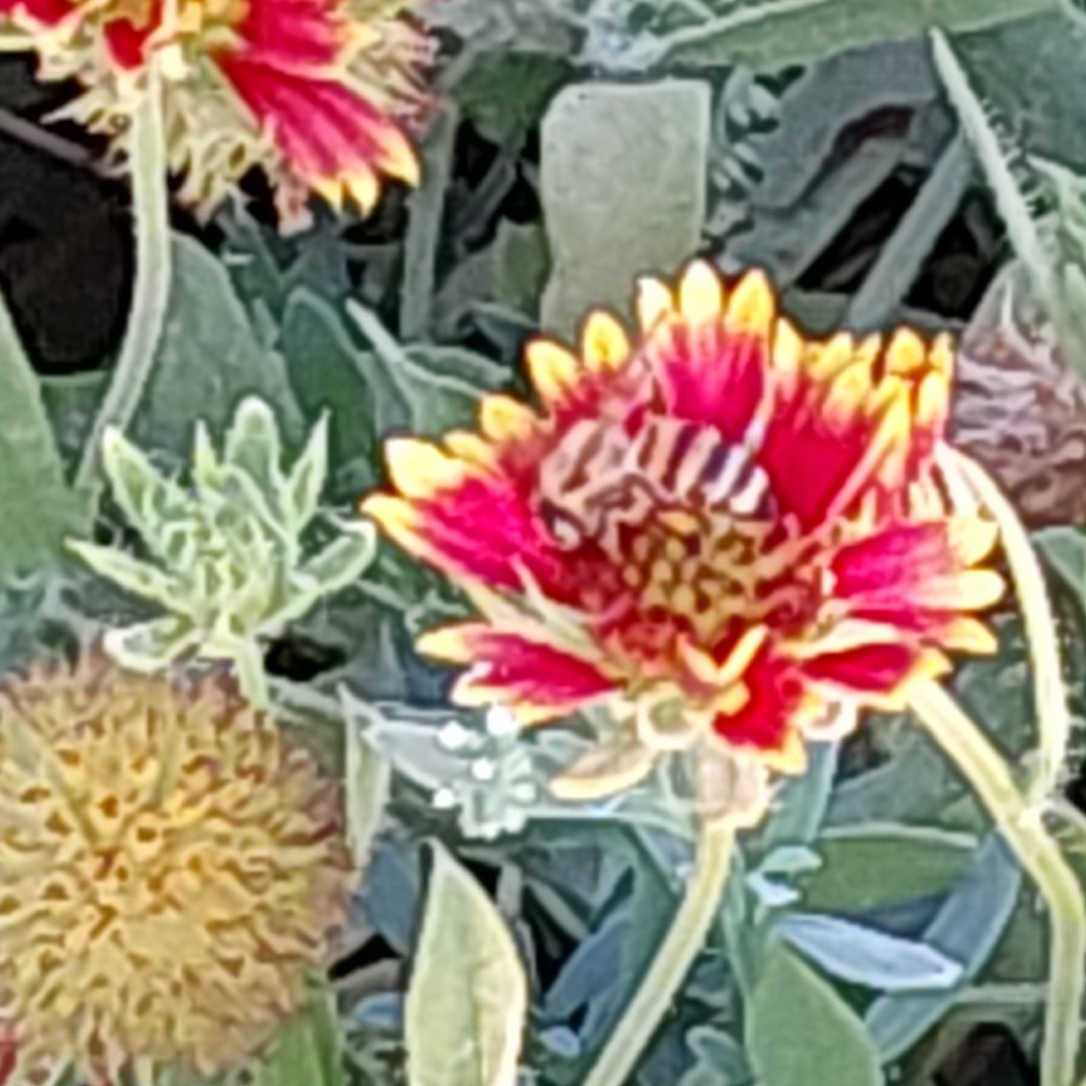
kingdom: Animalia
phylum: Arthropoda
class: Insecta
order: Hymenoptera
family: Apidae
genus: Apis
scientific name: Apis mellifera
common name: Honey bee
